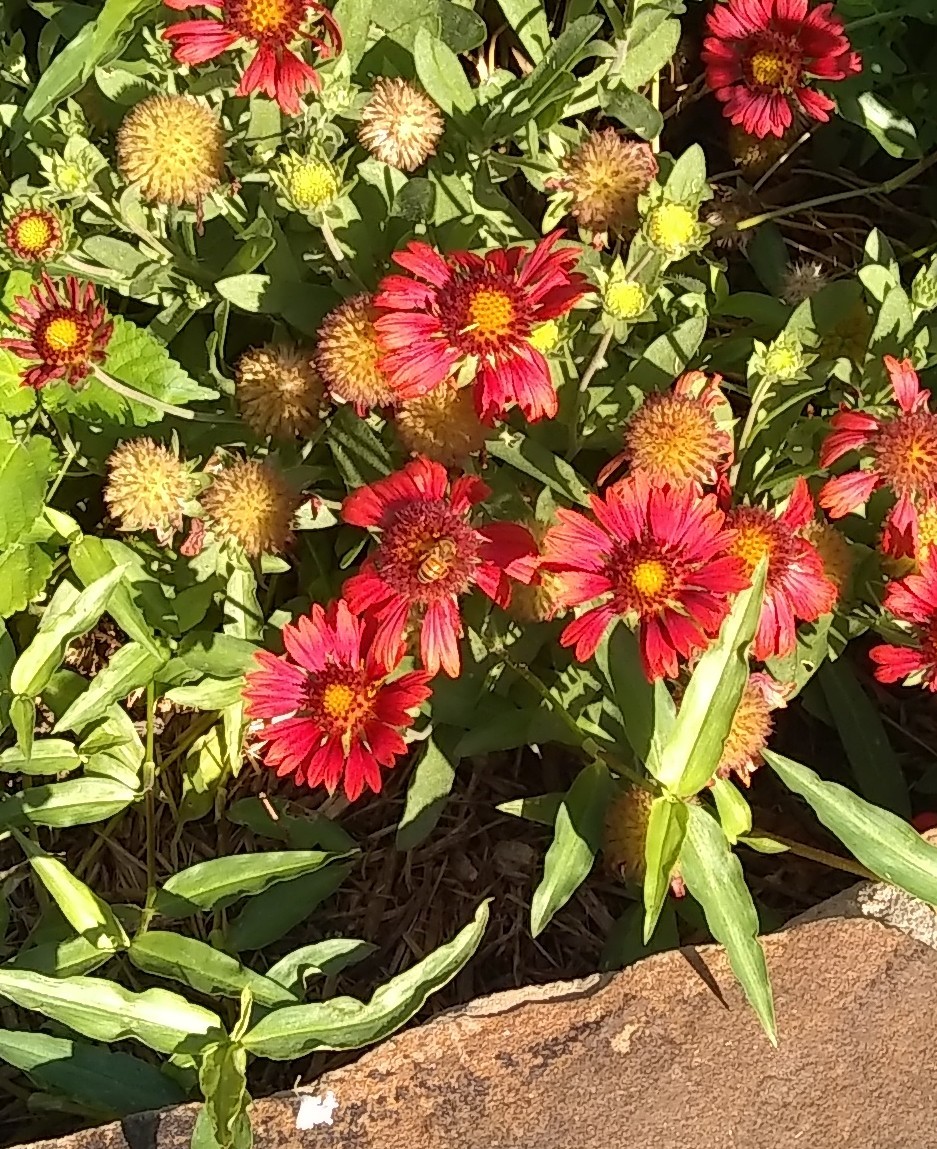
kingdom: Animalia
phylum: Arthropoda
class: Insecta
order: Hymenoptera
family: Apidae
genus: Apis
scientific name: Apis mellifera
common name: Honey bee
